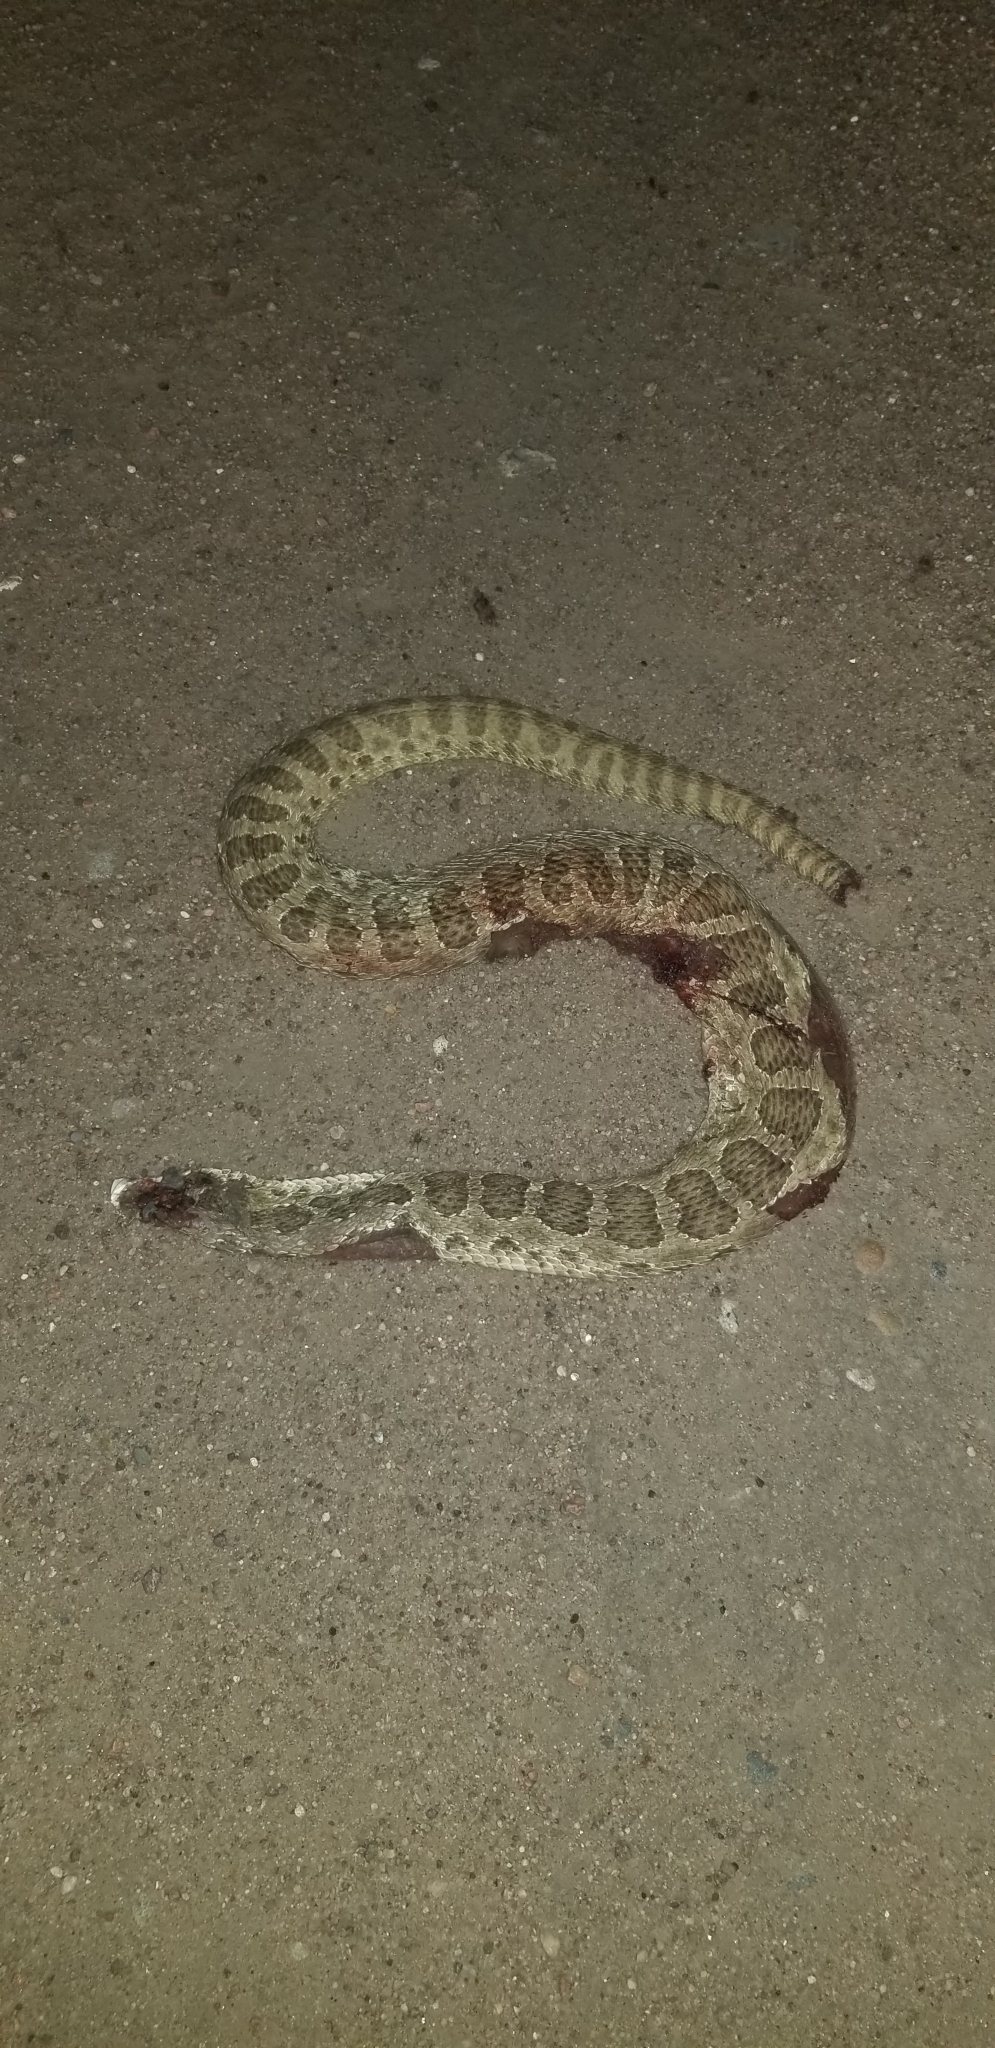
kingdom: Animalia
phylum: Chordata
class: Squamata
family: Viperidae
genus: Crotalus
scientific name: Crotalus viridis
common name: Prairie rattlesnake
